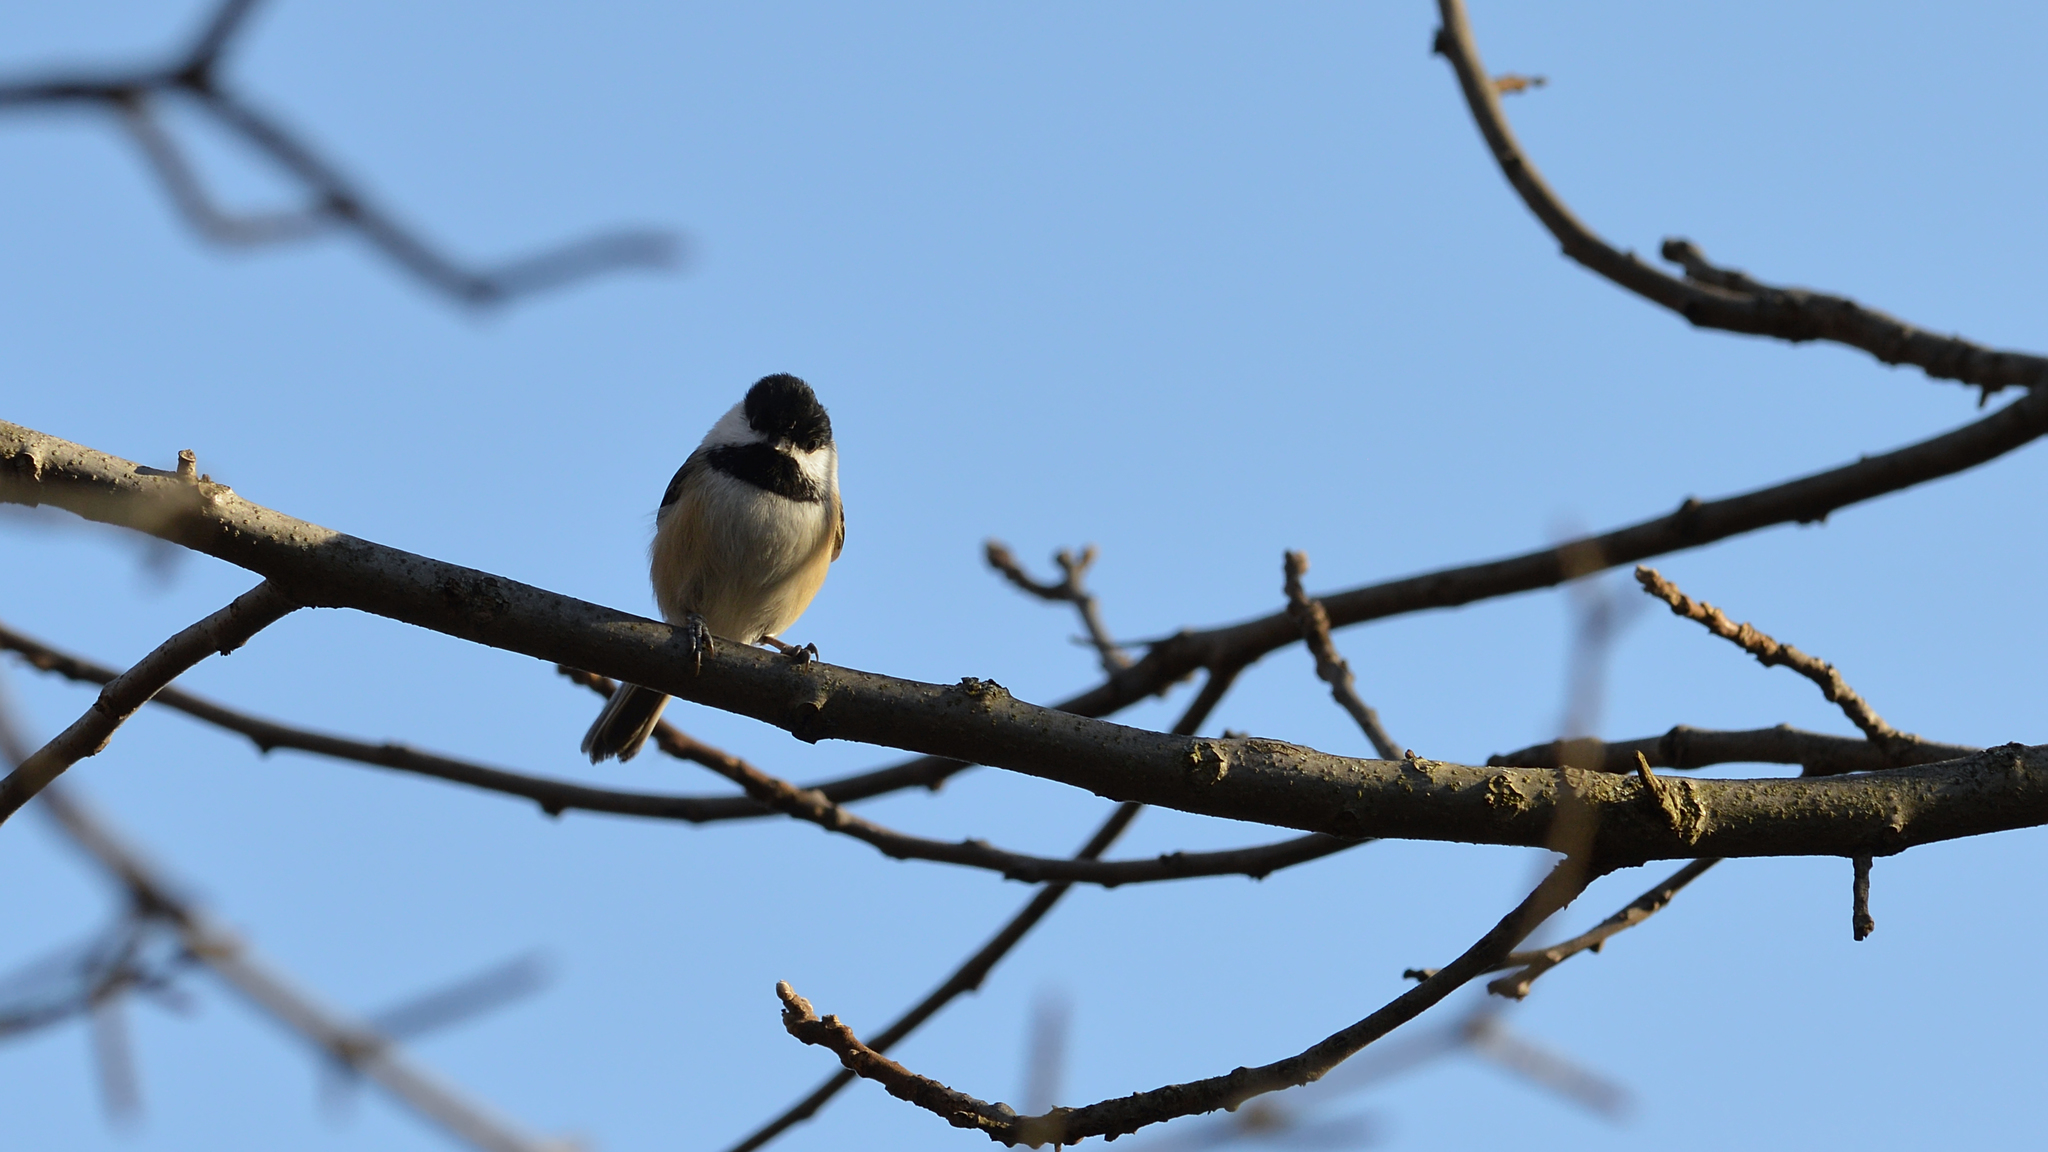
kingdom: Animalia
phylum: Chordata
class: Aves
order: Passeriformes
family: Paridae
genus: Poecile
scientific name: Poecile atricapillus
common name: Black-capped chickadee
